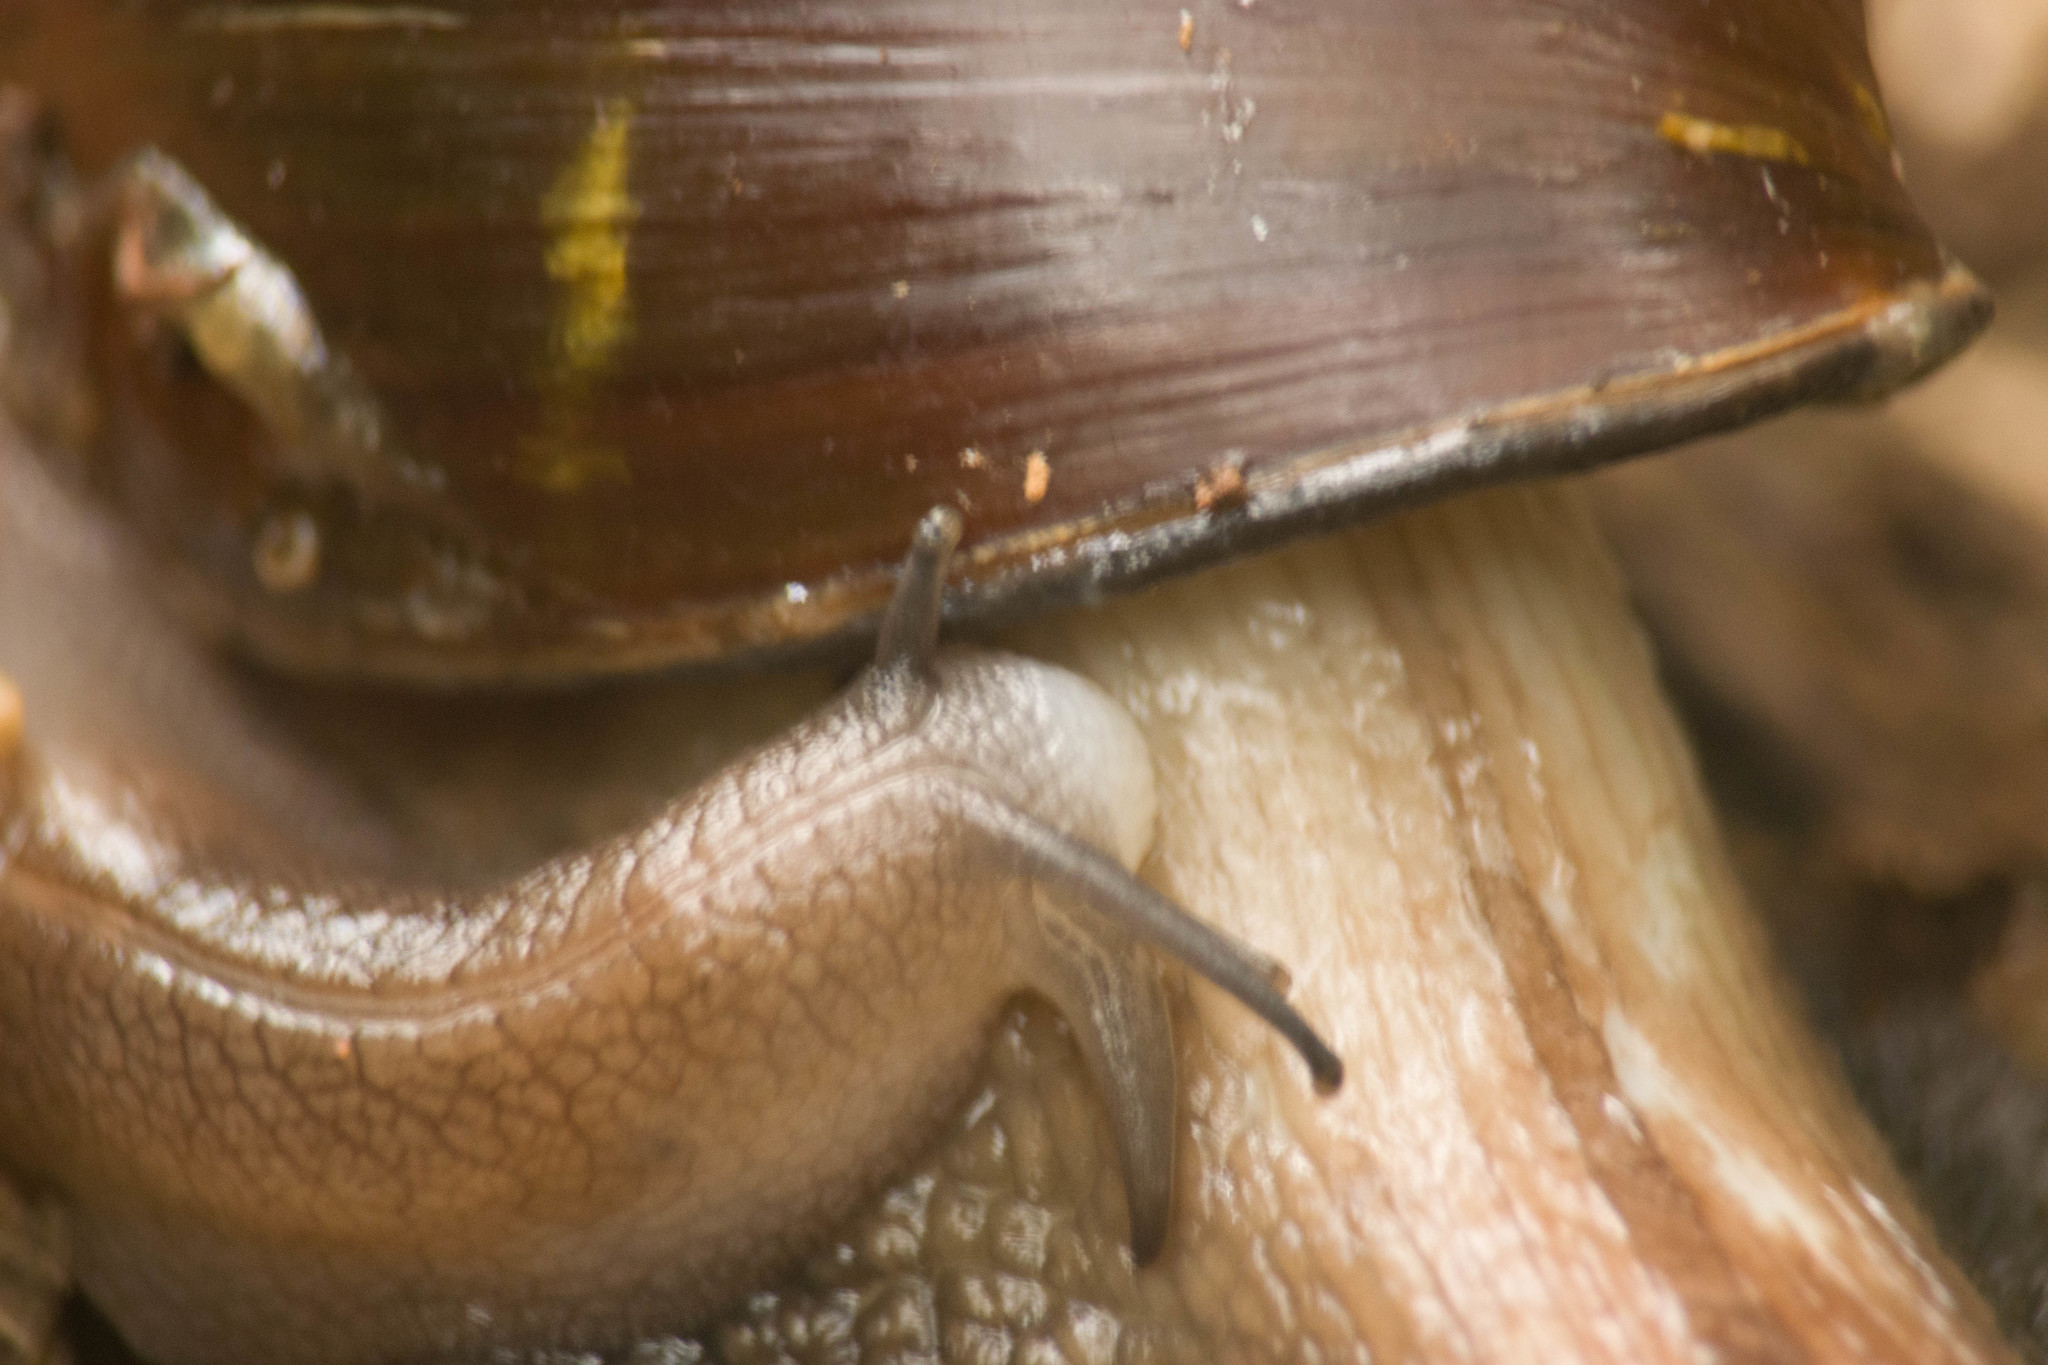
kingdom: Animalia
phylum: Mollusca
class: Gastropoda
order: Stylommatophora
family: Spiraxidae
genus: Euglandina
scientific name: Euglandina rosea
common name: Rosy wolfsnail
